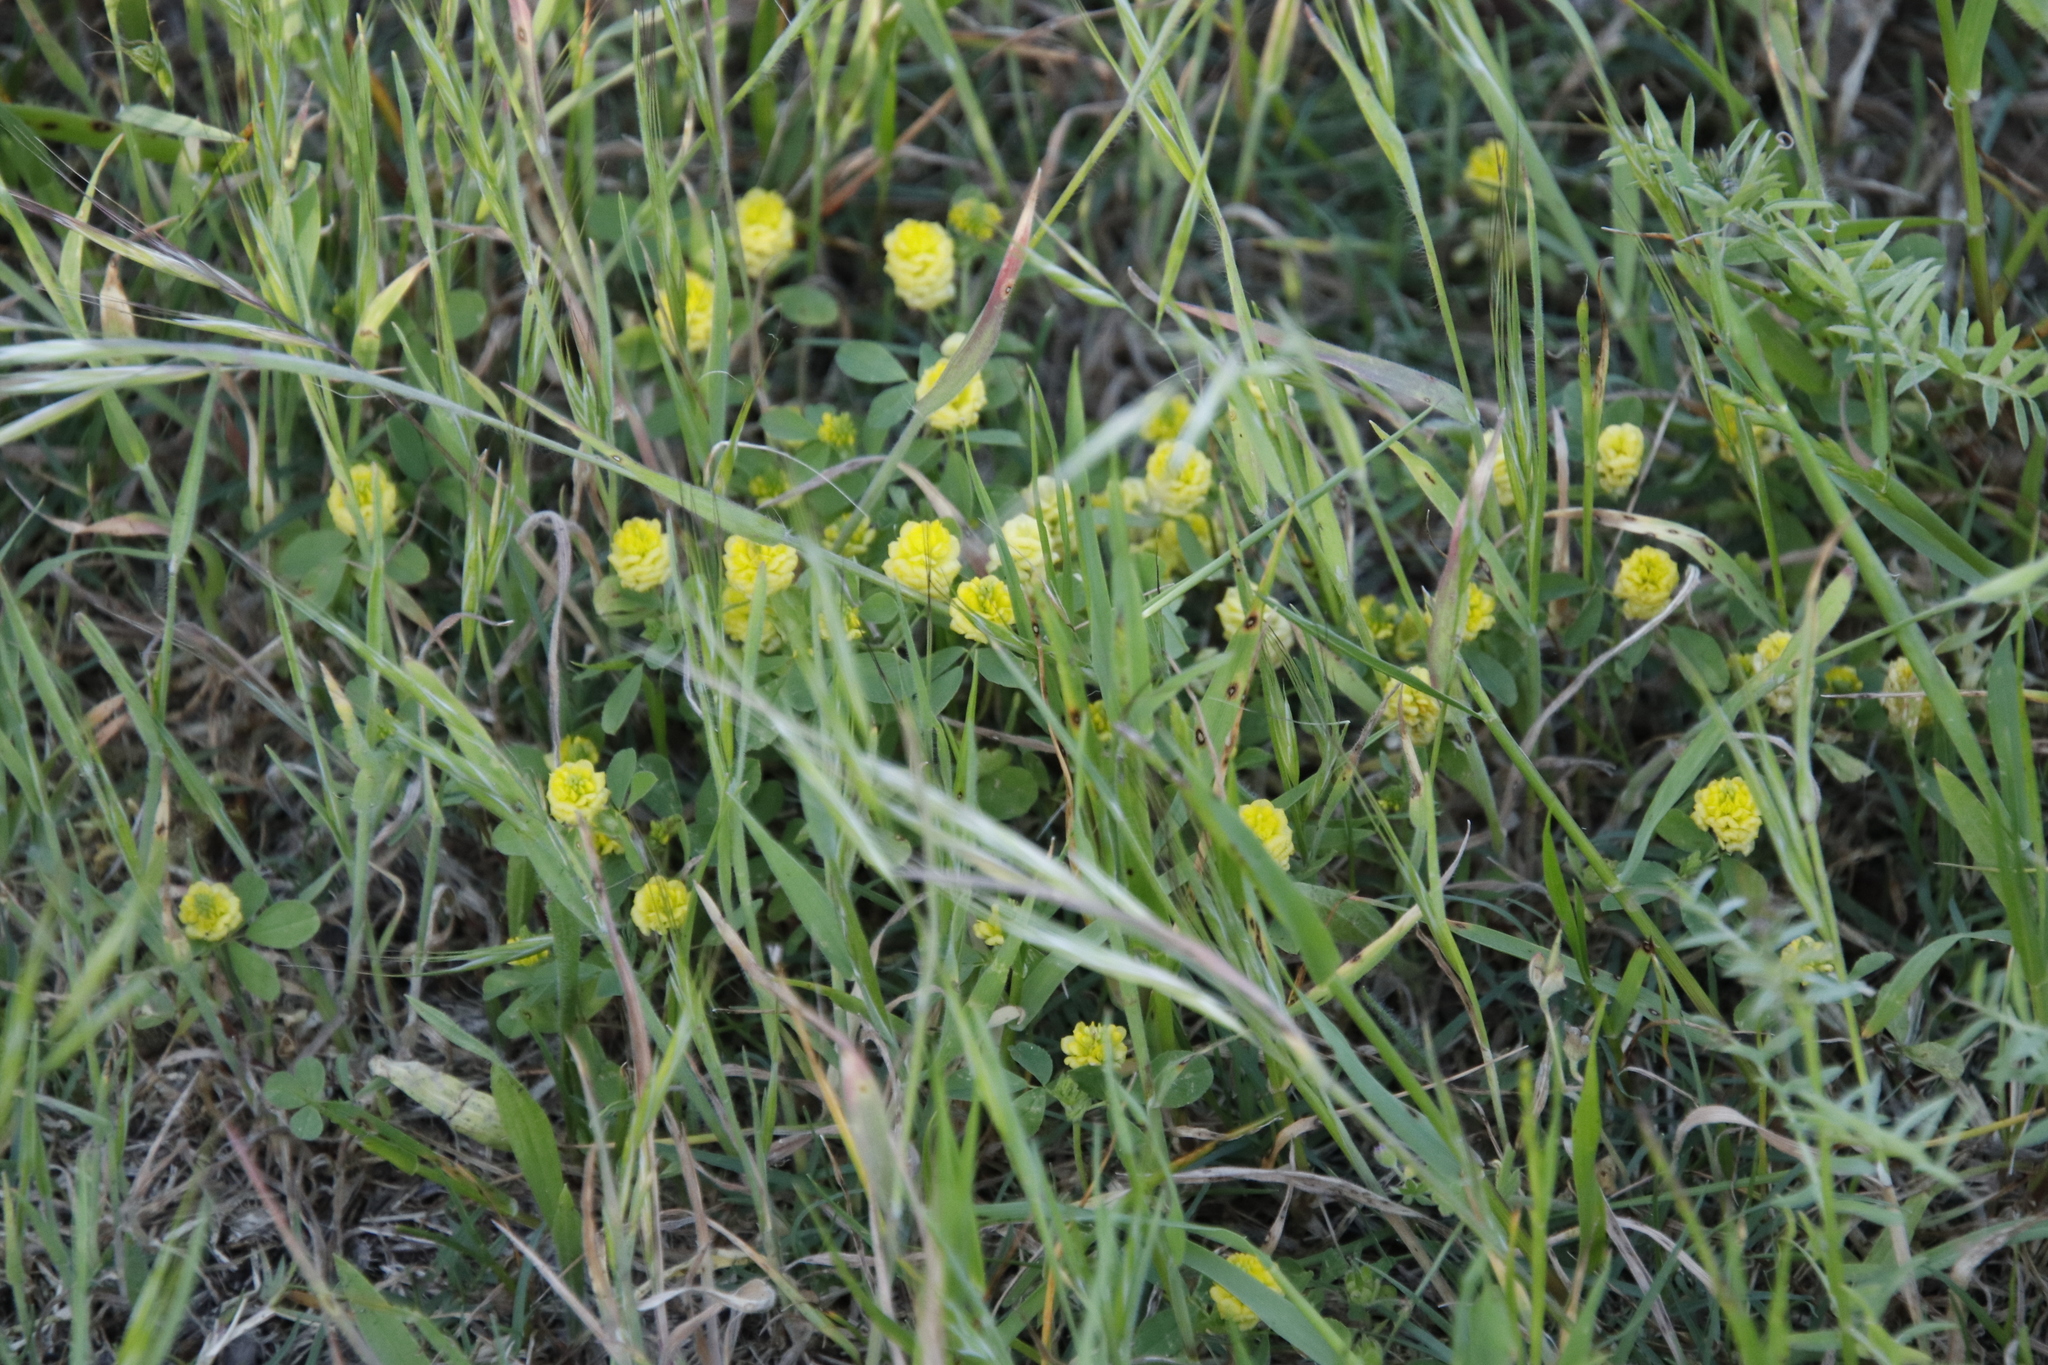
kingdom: Plantae
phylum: Tracheophyta
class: Magnoliopsida
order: Fabales
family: Fabaceae
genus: Trifolium
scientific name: Trifolium campestre
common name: Field clover
